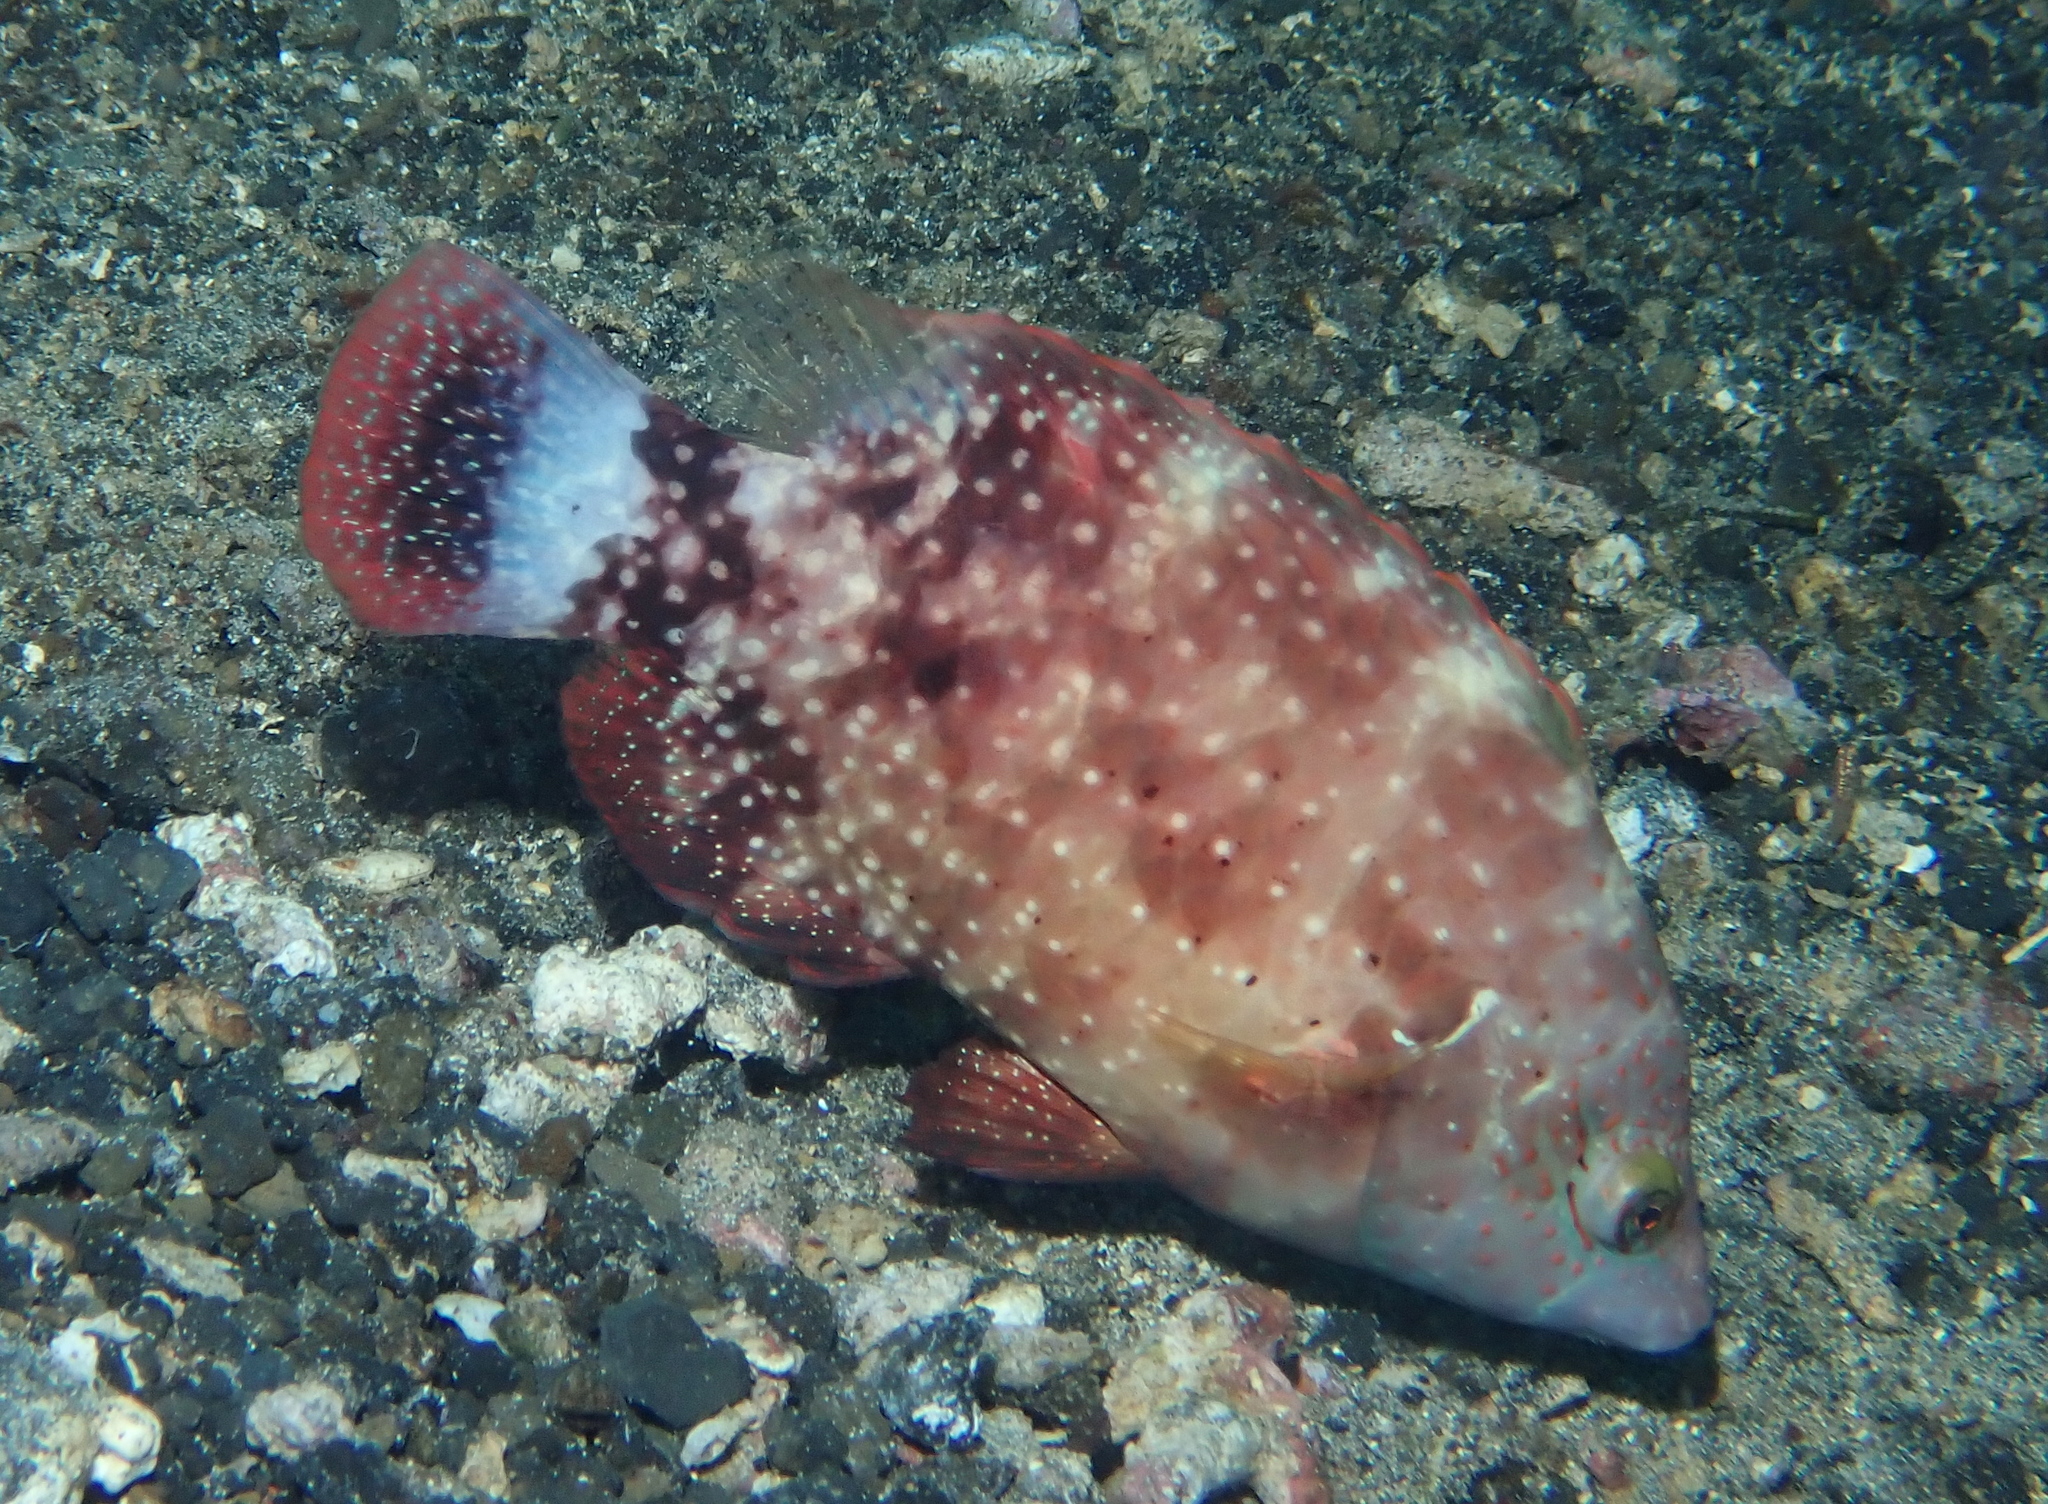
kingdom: Animalia
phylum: Chordata
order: Perciformes
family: Labridae
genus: Cheilinus
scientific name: Cheilinus chlorourus
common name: Floral wrasse
